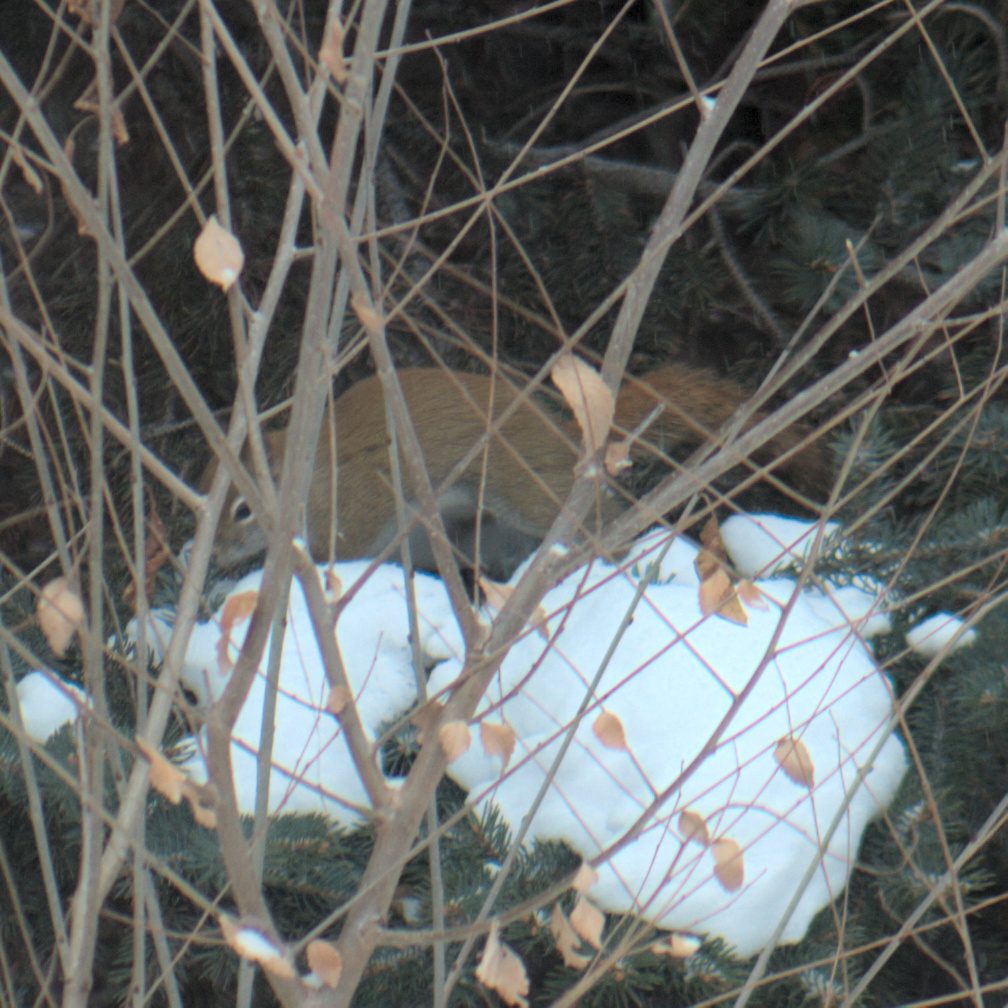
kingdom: Animalia
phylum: Chordata
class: Mammalia
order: Rodentia
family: Sciuridae
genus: Tamiasciurus
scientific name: Tamiasciurus hudsonicus
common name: Red squirrel
